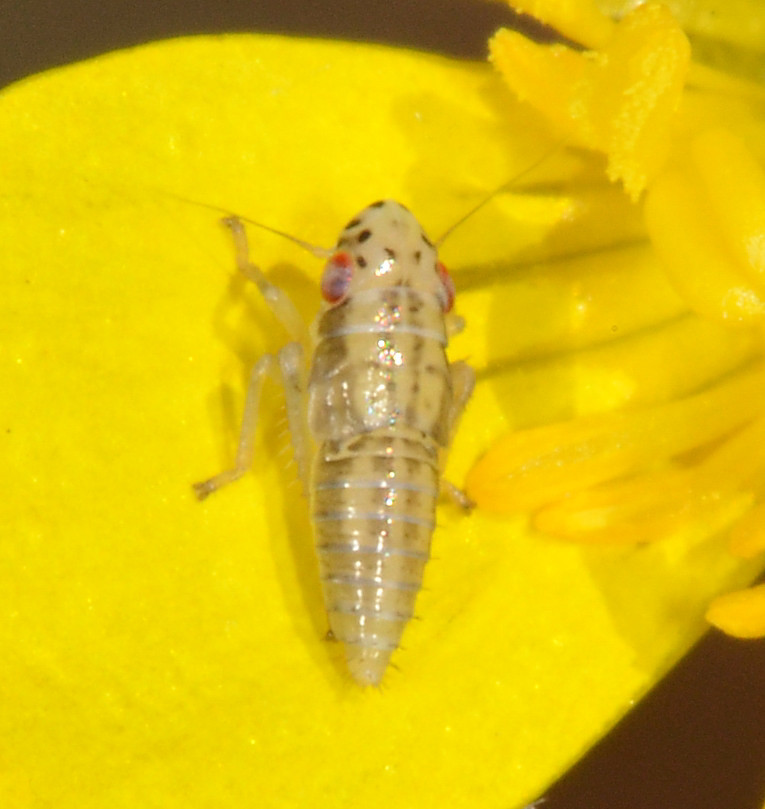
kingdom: Animalia
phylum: Arthropoda
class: Insecta
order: Hemiptera
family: Cicadellidae
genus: Pagaronia
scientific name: Pagaronia triunata
